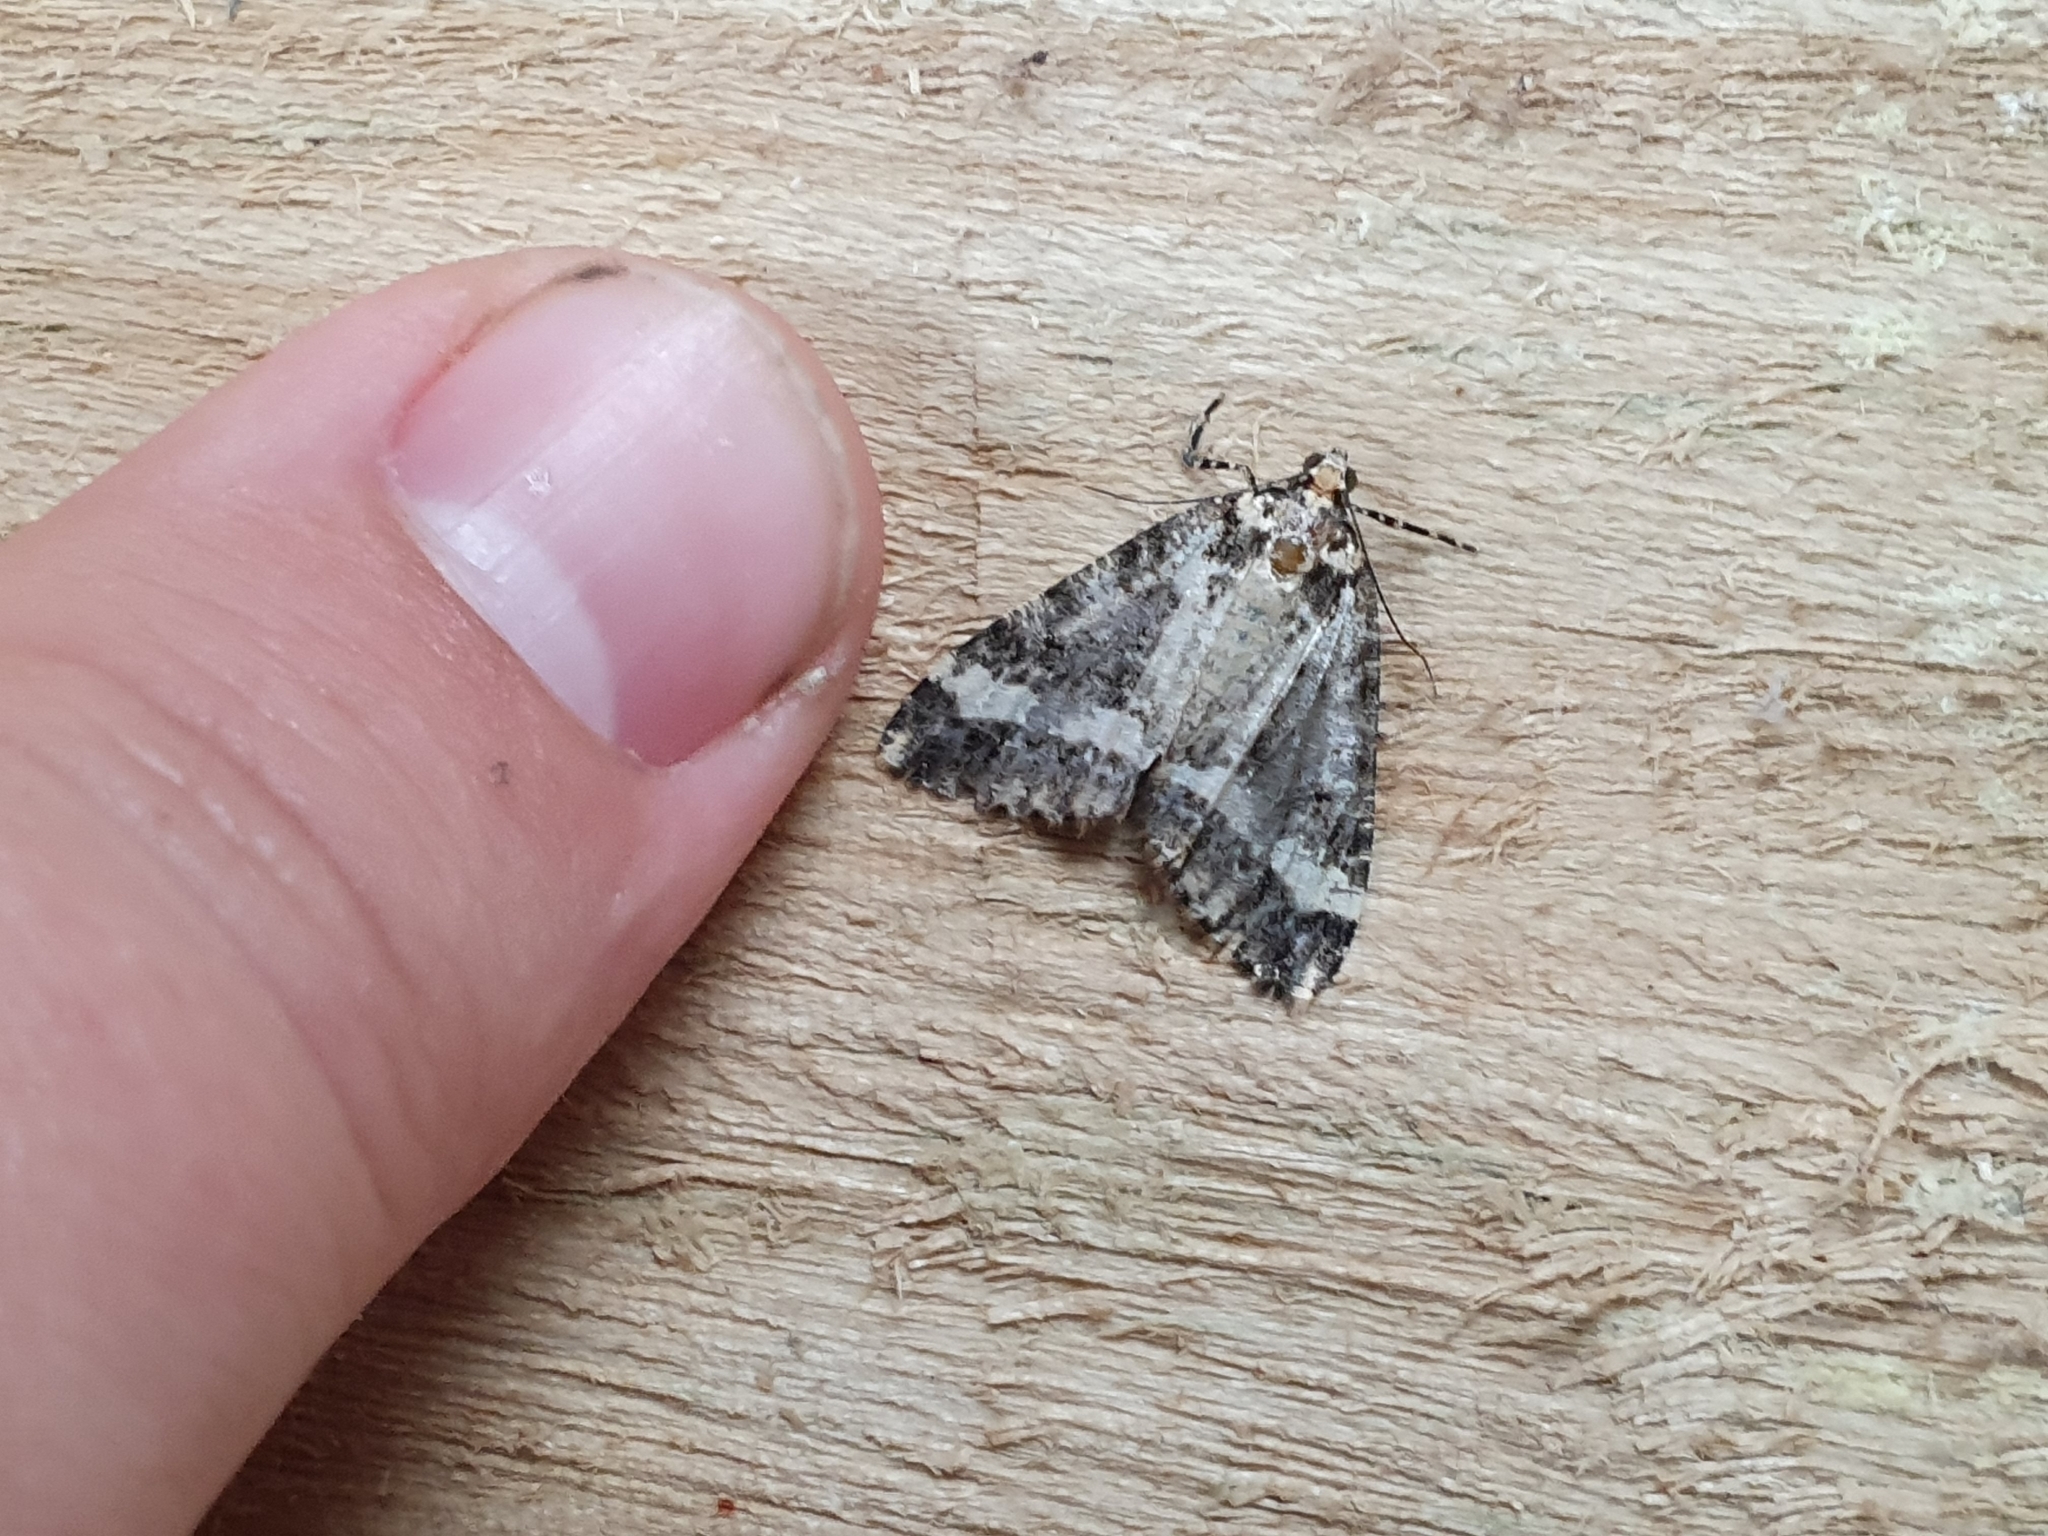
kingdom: Animalia
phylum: Arthropoda
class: Insecta
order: Lepidoptera
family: Geometridae
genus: Pseudocoremia
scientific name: Pseudocoremia leucelaea
